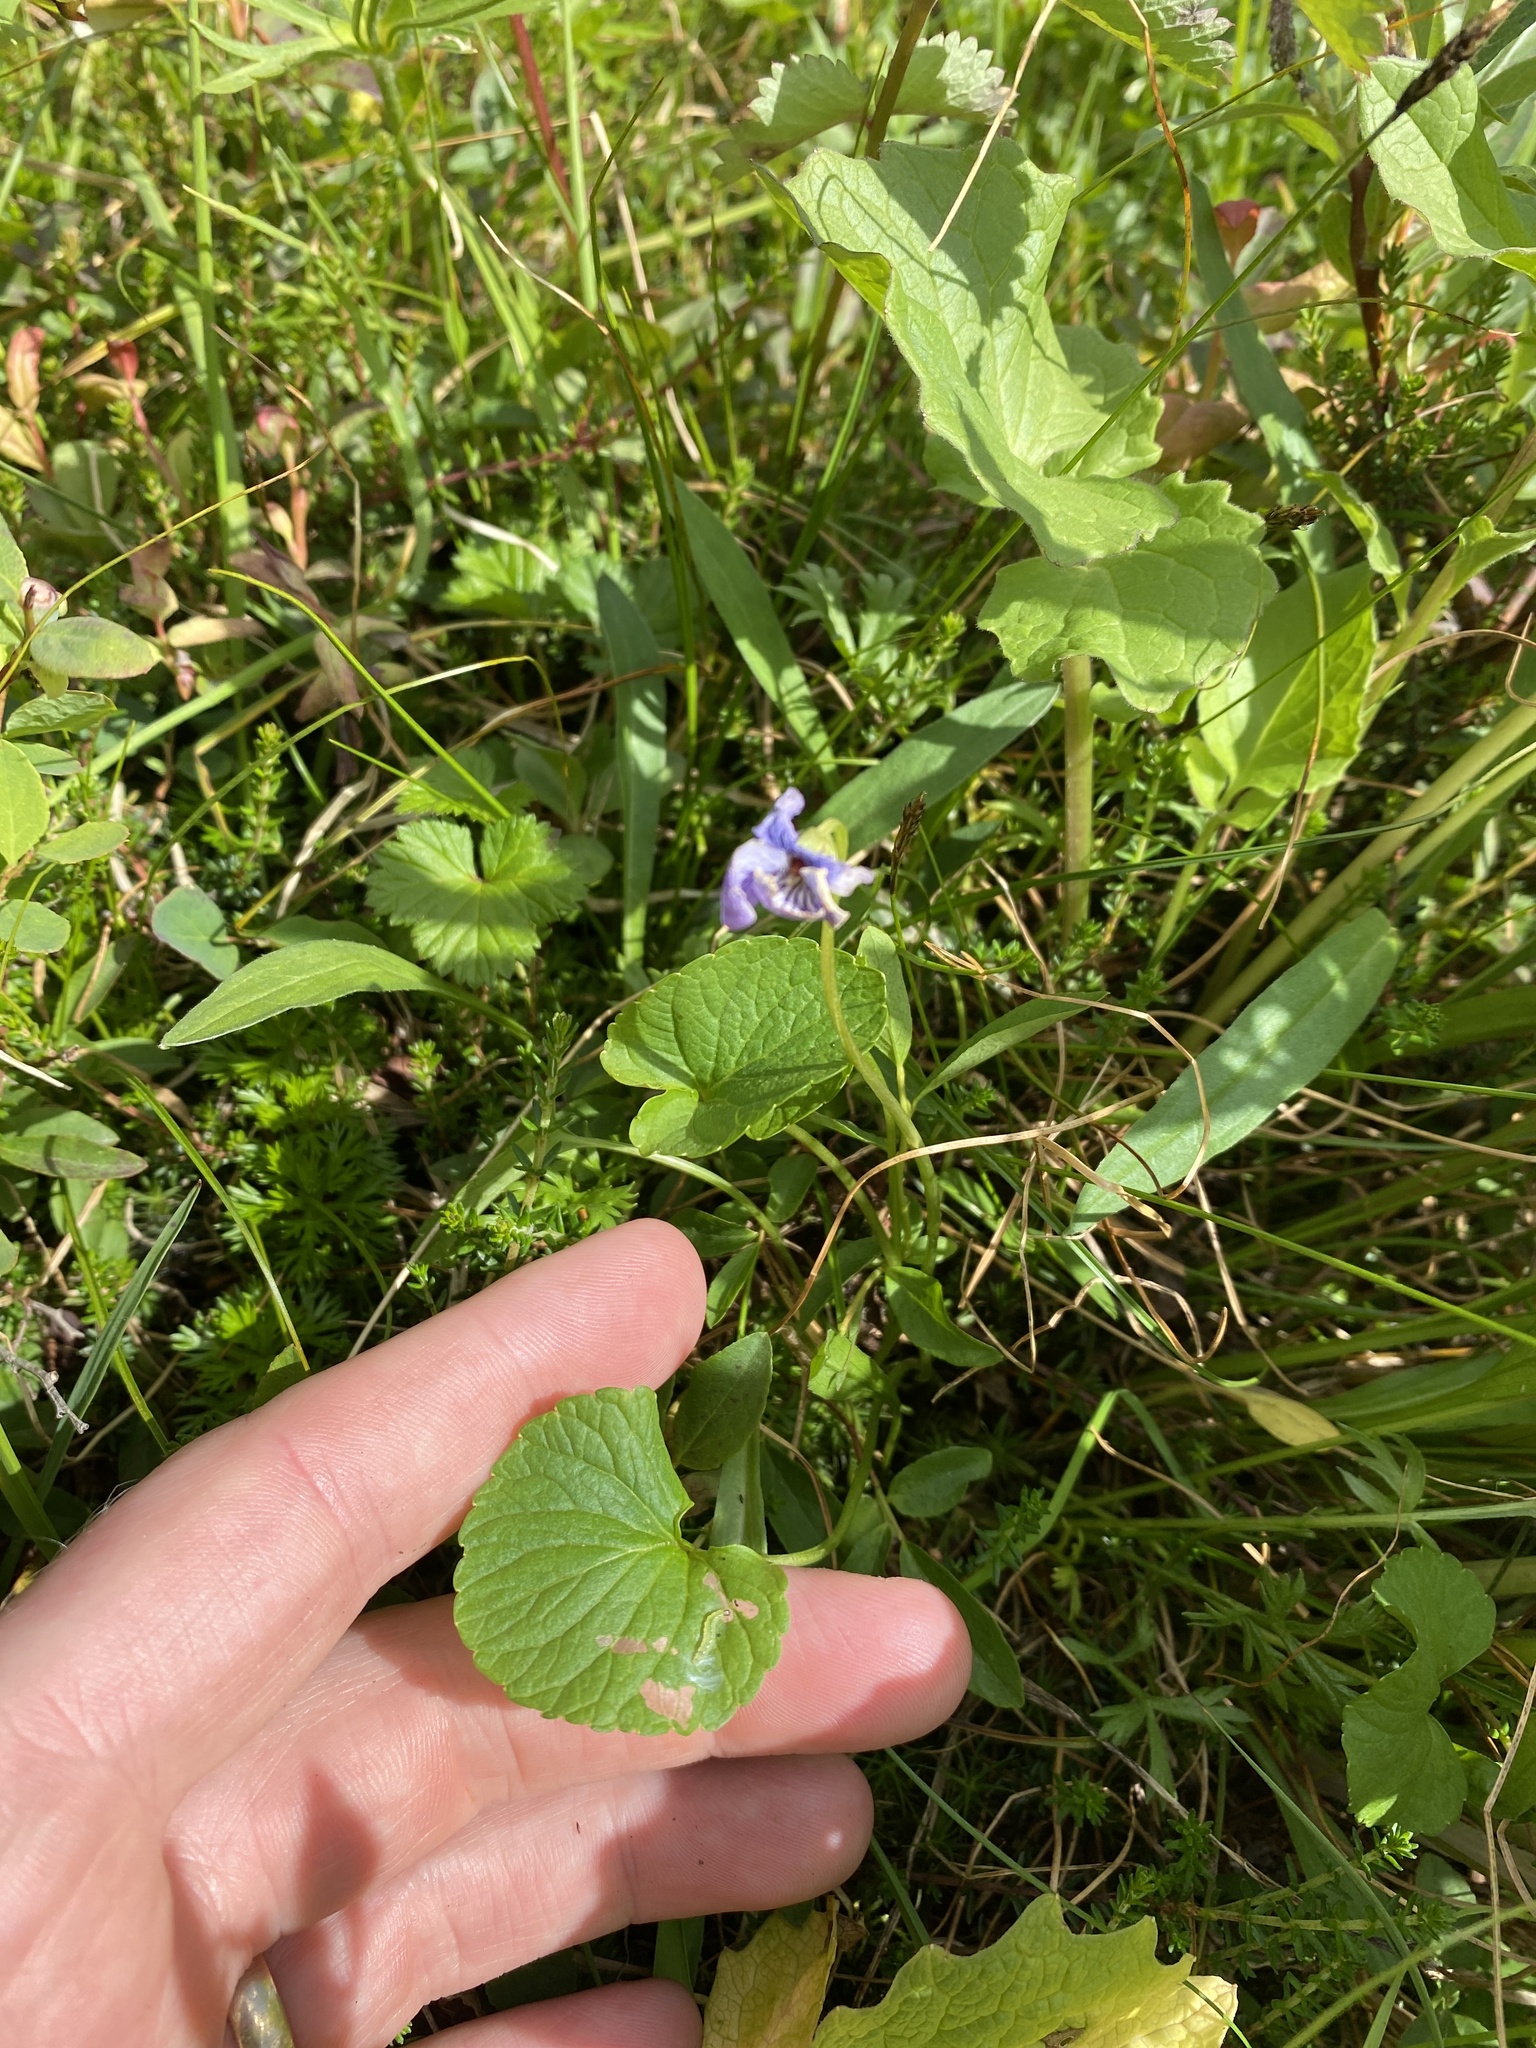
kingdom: Plantae
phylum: Tracheophyta
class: Magnoliopsida
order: Malpighiales
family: Violaceae
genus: Viola
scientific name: Viola langsdorffii
